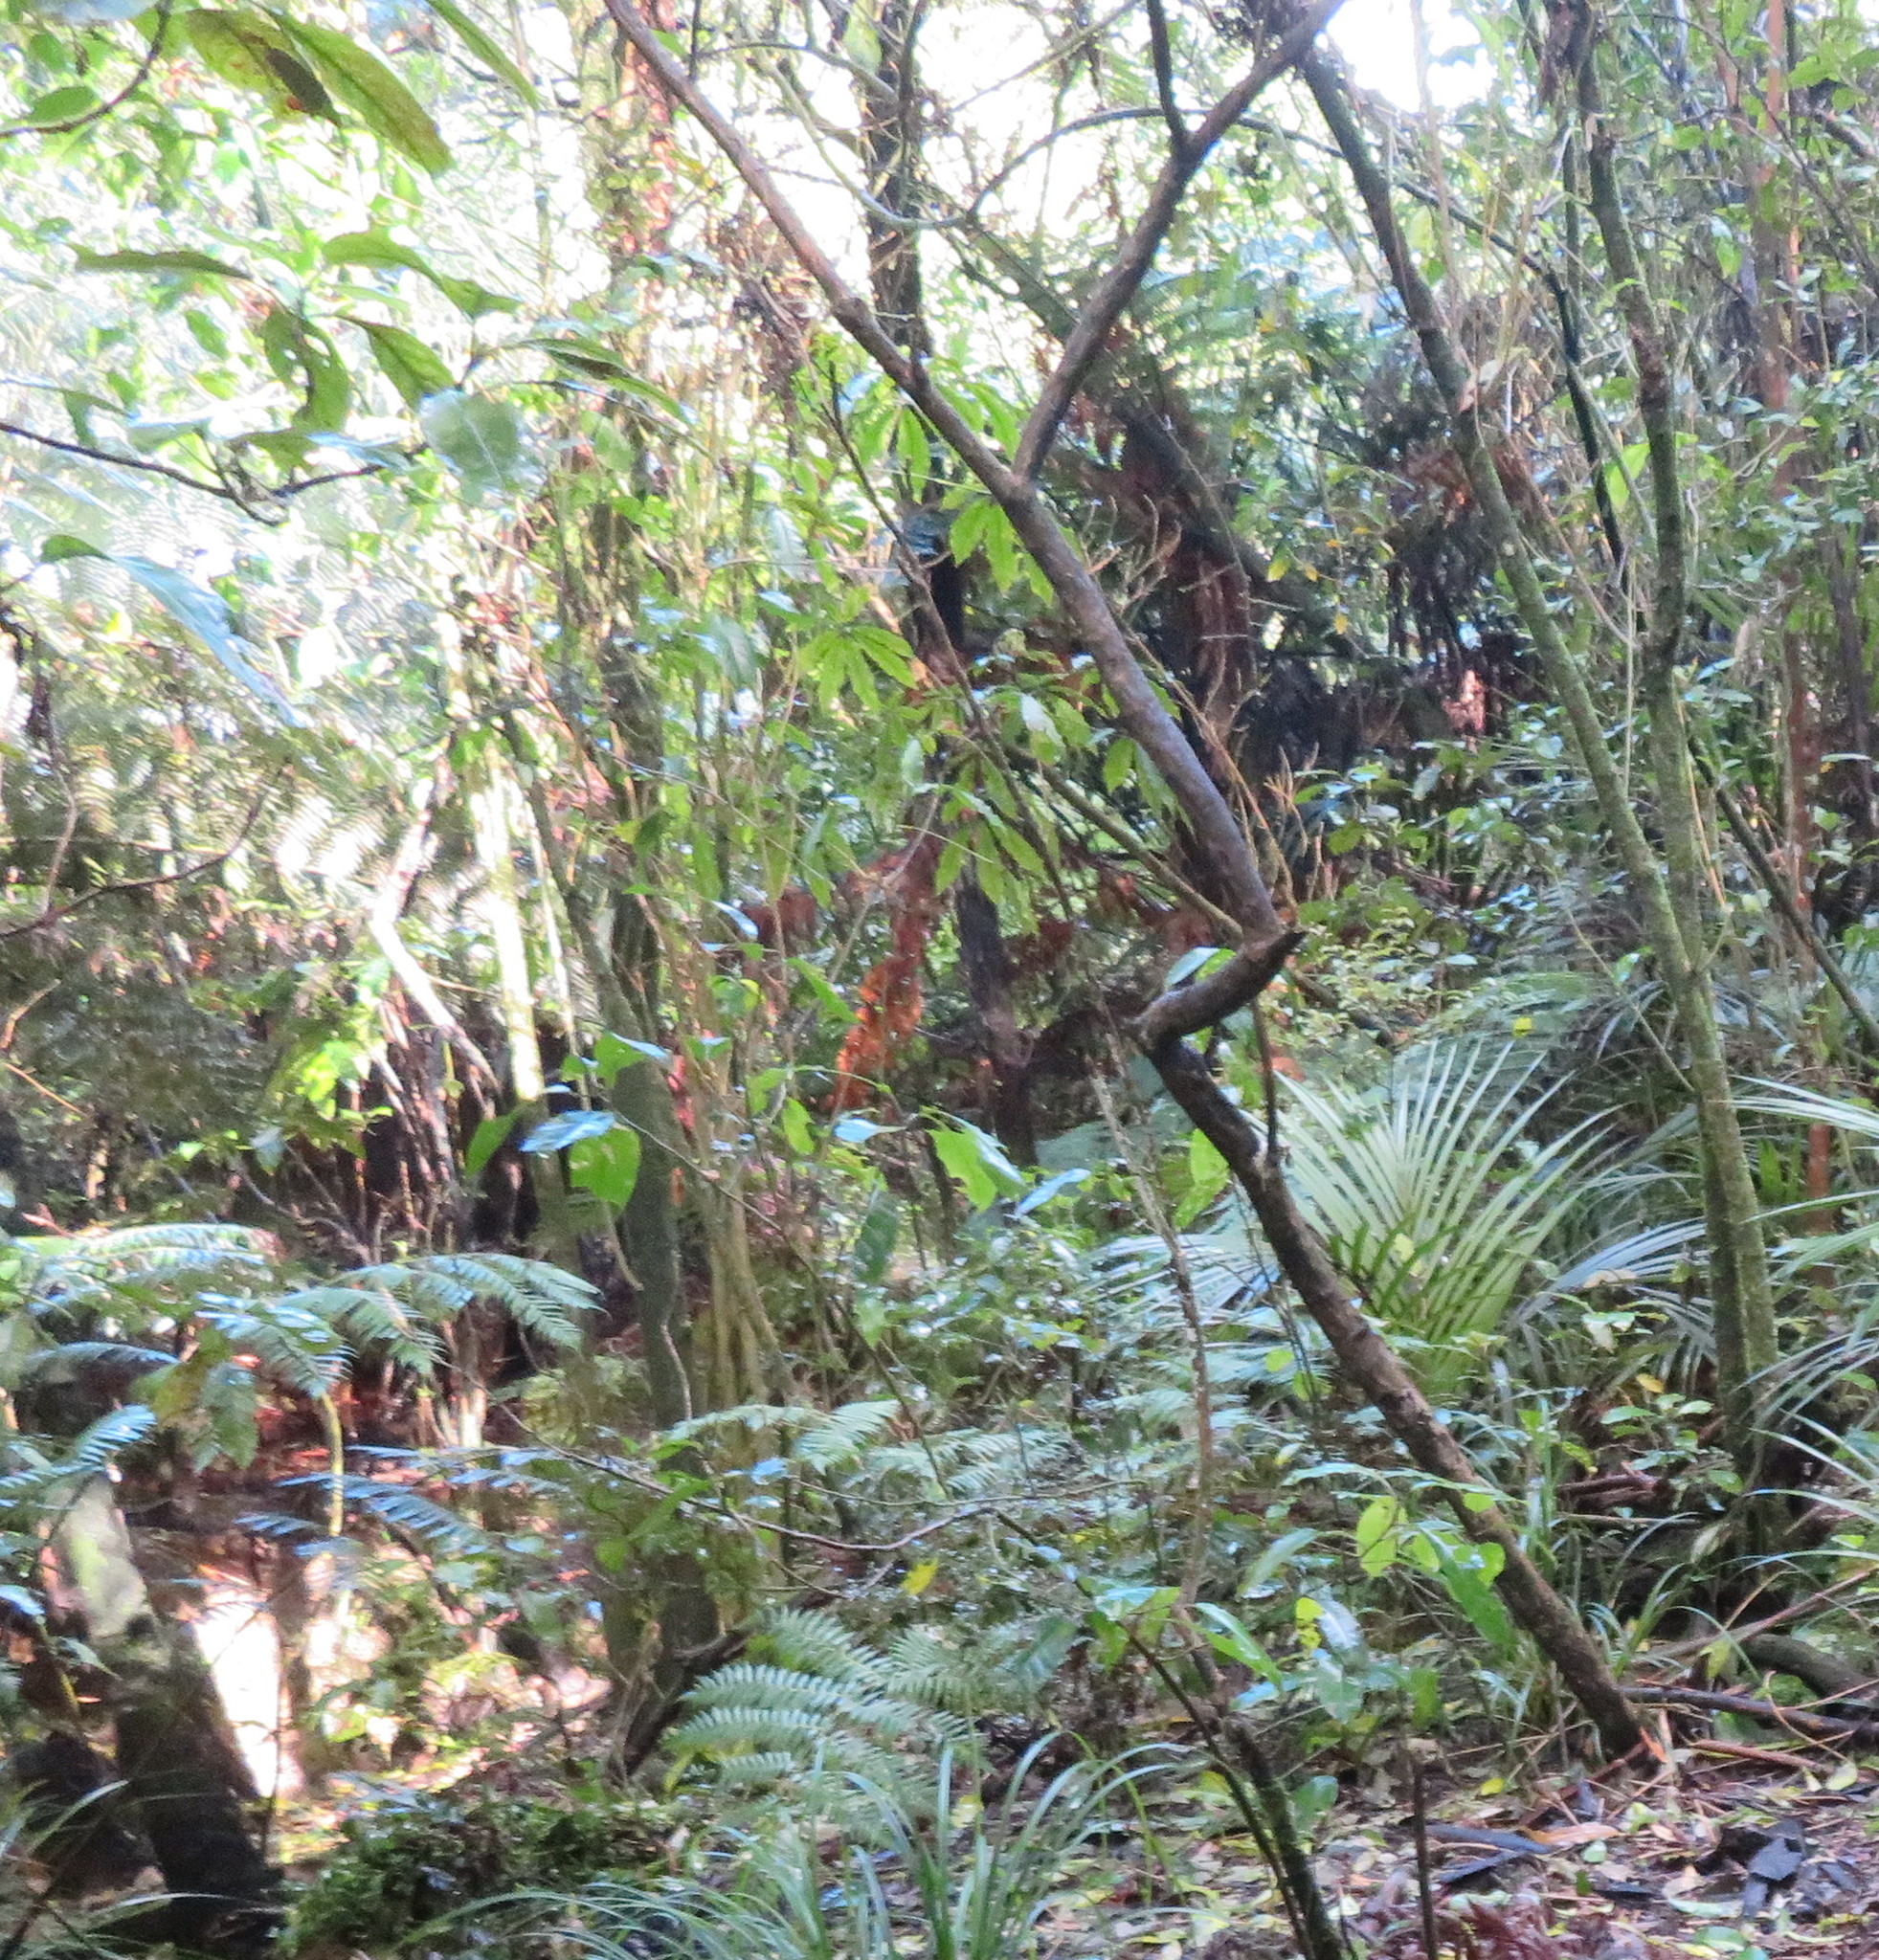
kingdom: Plantae
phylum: Tracheophyta
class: Magnoliopsida
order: Apiales
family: Araliaceae
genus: Schefflera
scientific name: Schefflera digitata
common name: Pate
